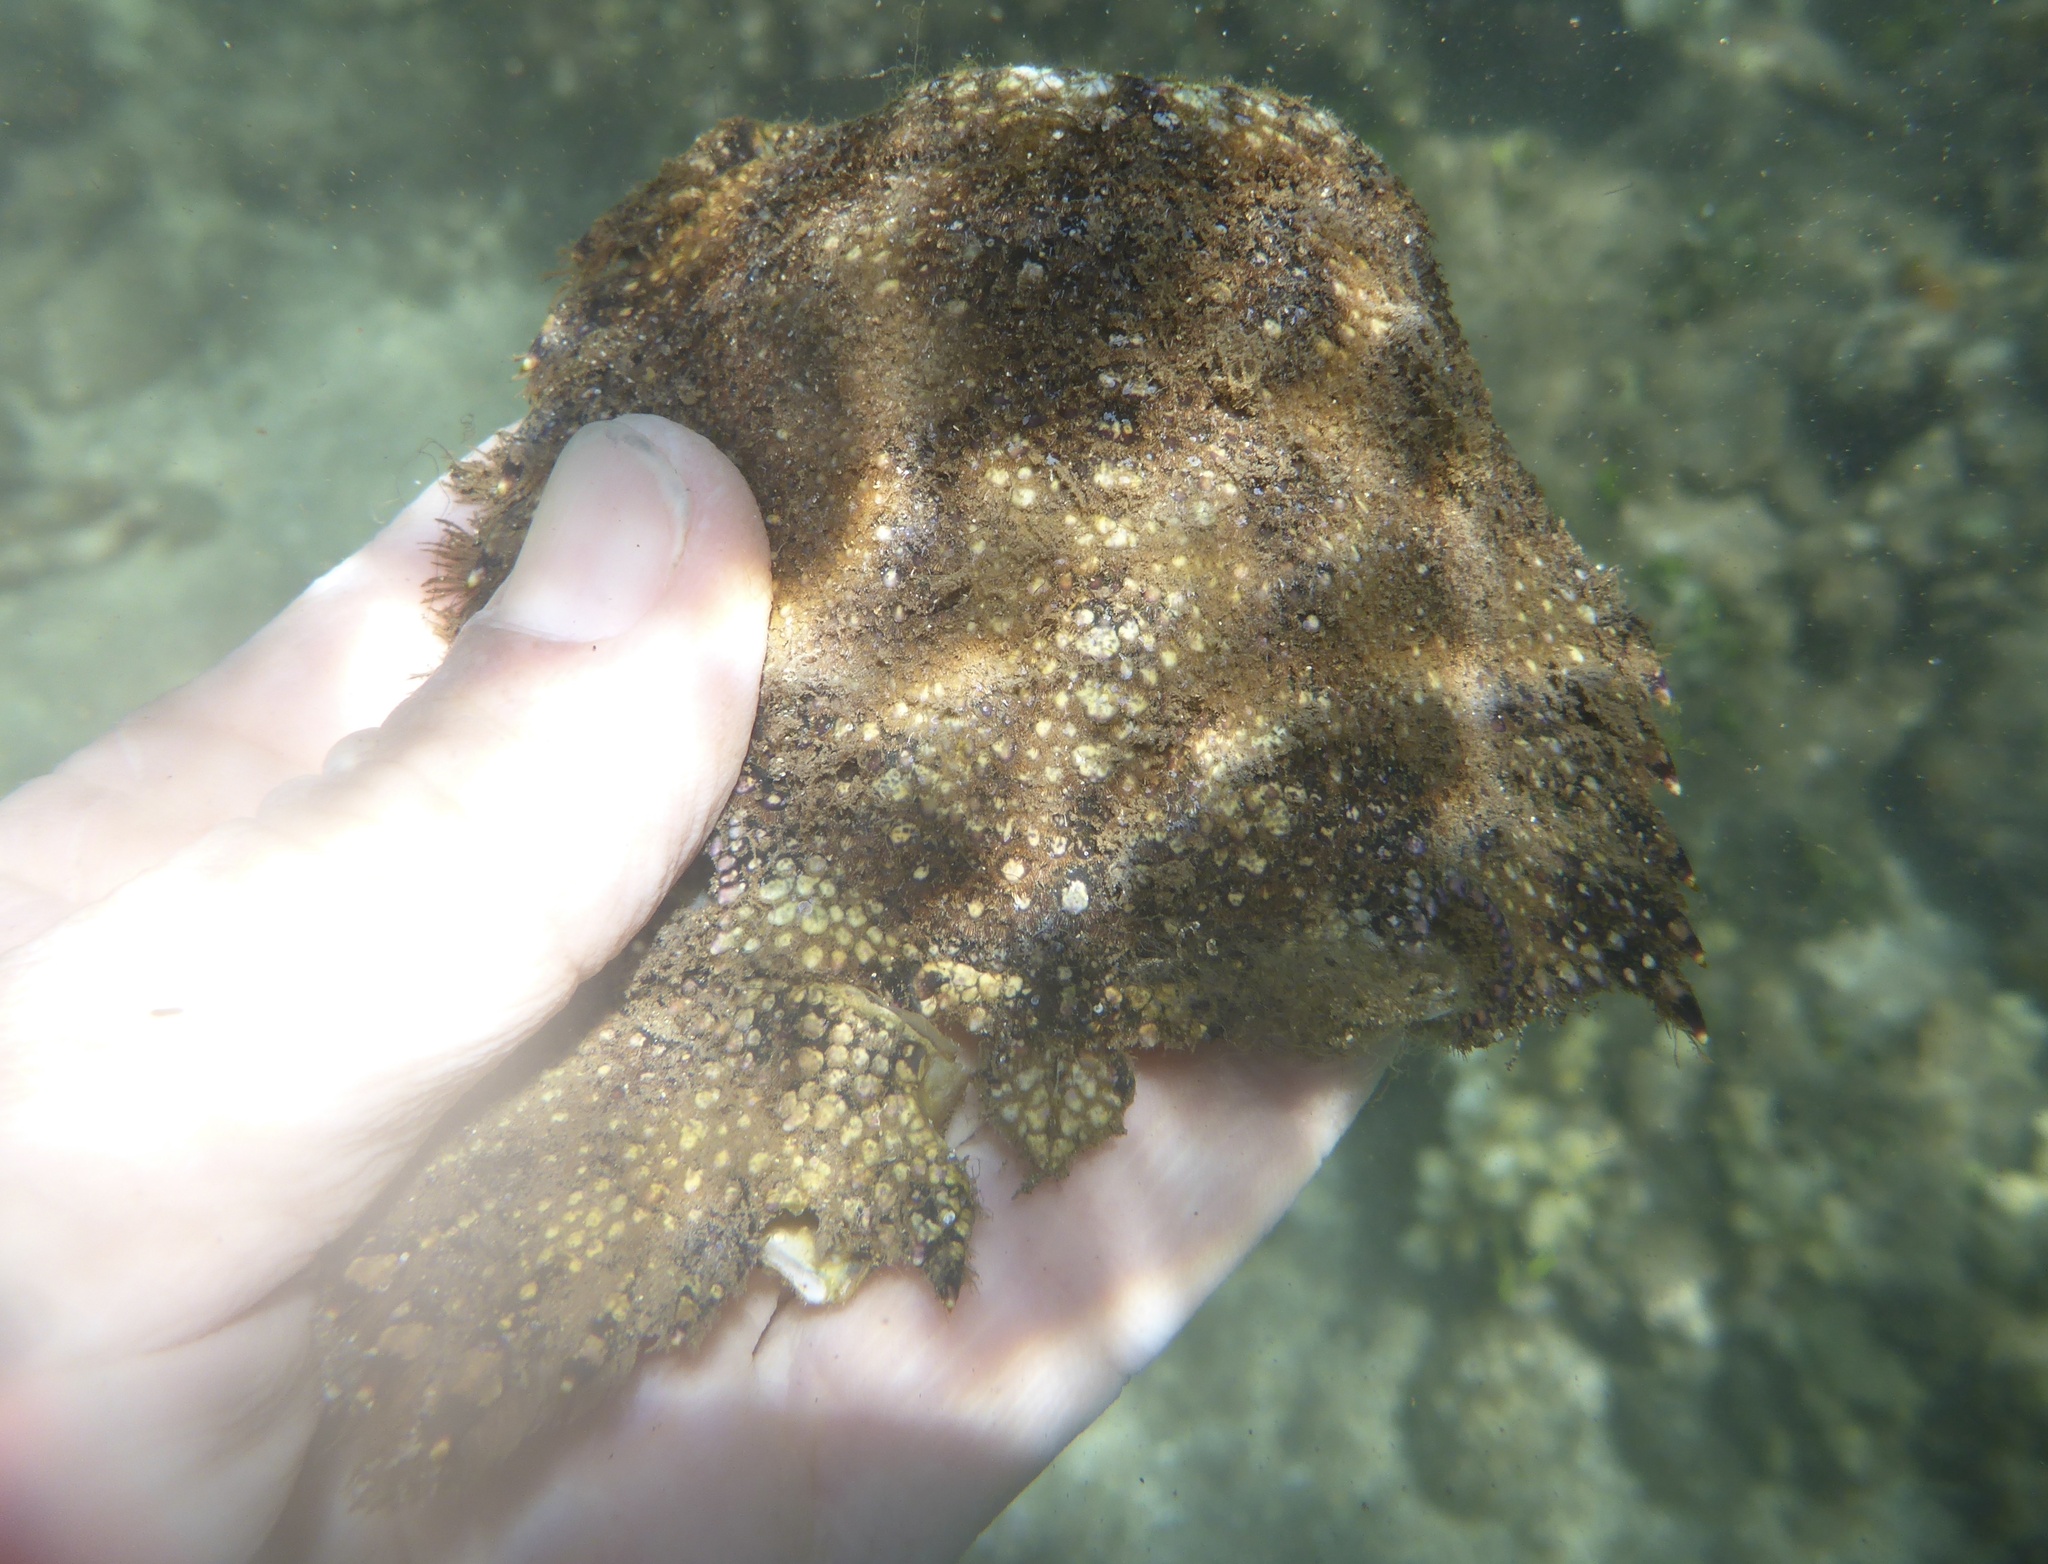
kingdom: Animalia
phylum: Arthropoda
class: Malacostraca
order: Decapoda
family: Scyllaridae
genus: Parribacus
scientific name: Parribacus antarcticus
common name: Sculptured mitten lobster
